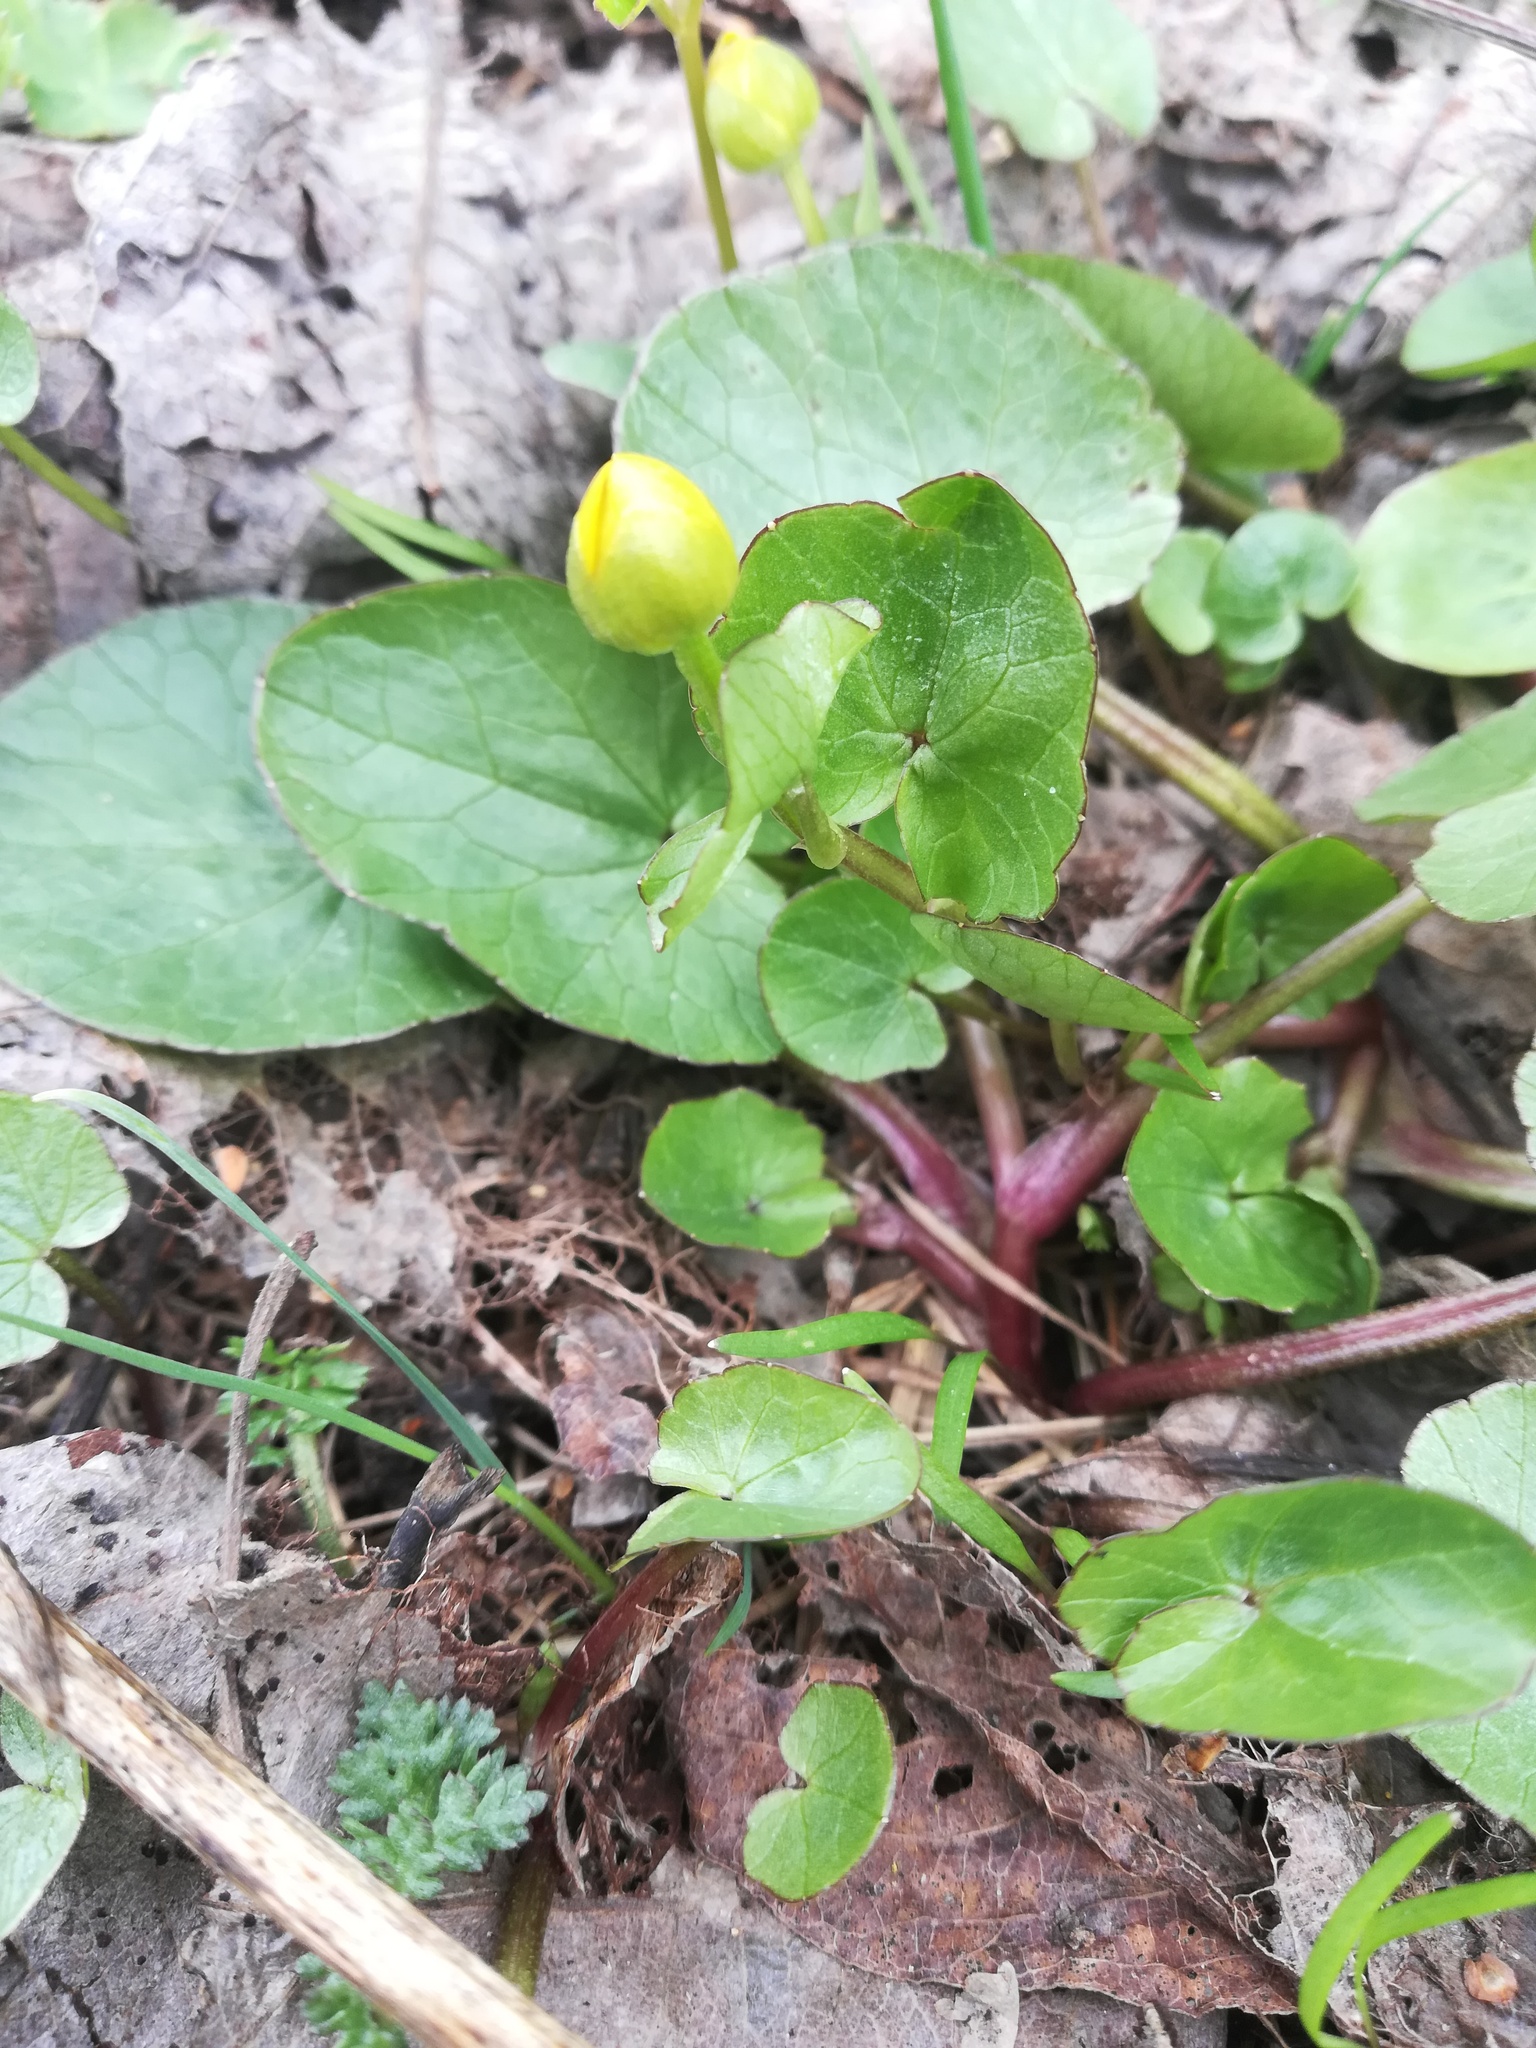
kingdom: Plantae
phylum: Tracheophyta
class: Magnoliopsida
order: Ranunculales
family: Ranunculaceae
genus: Ficaria
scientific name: Ficaria verna
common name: Lesser celandine
